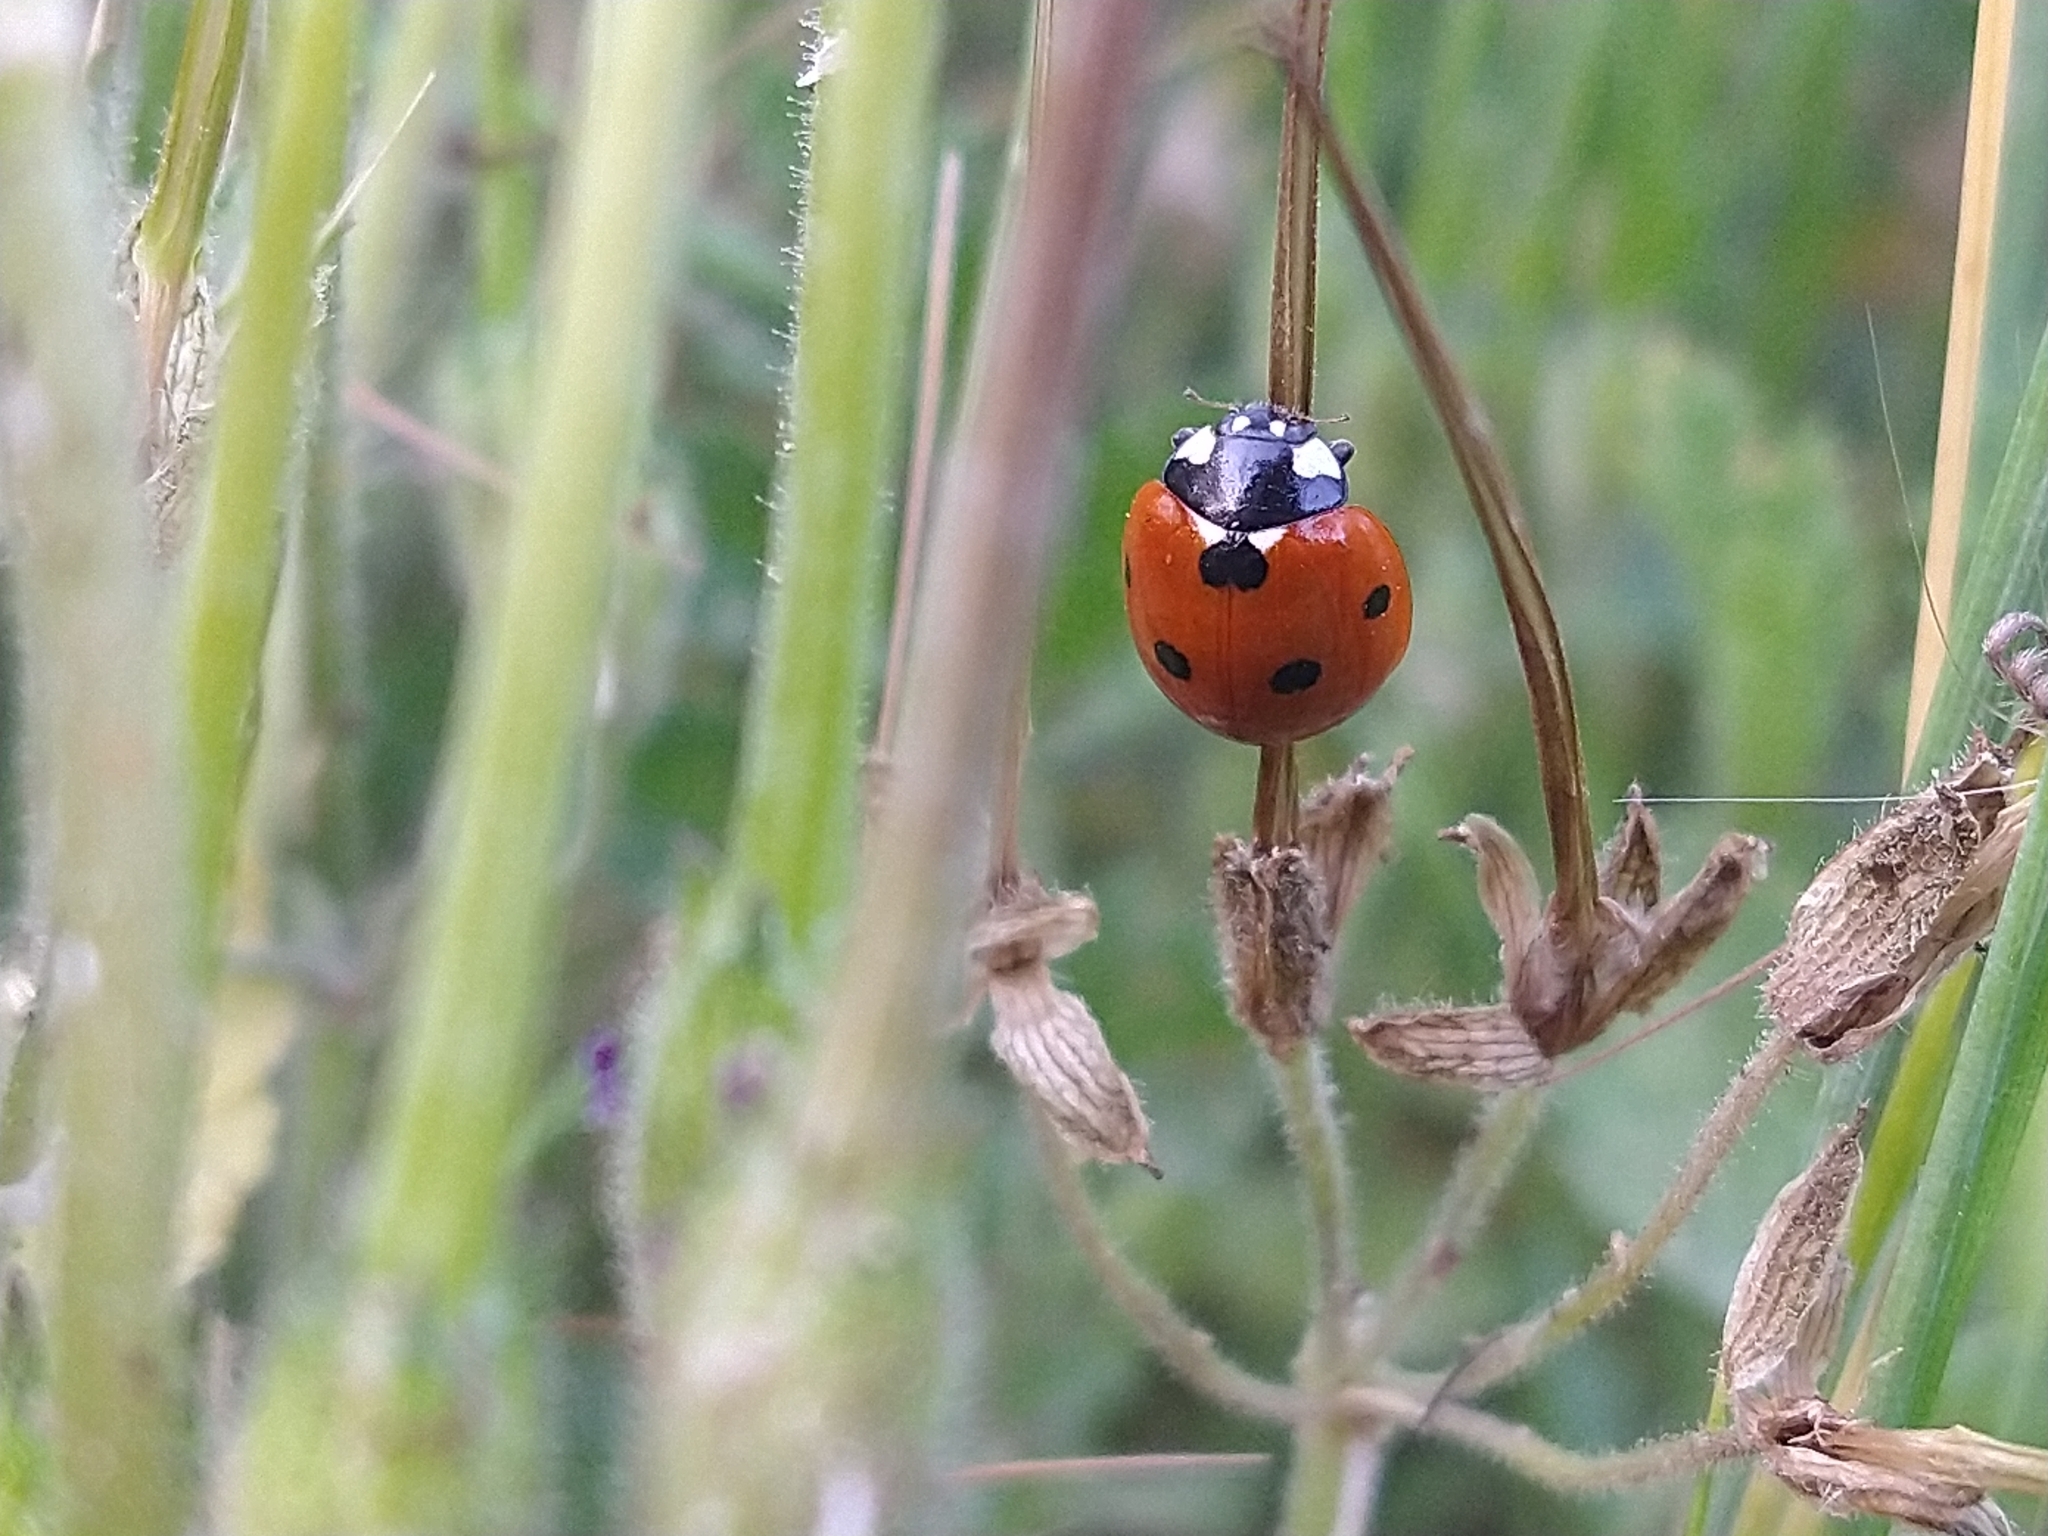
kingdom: Animalia
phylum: Arthropoda
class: Insecta
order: Coleoptera
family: Coccinellidae
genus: Coccinella
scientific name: Coccinella septempunctata
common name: Sevenspotted lady beetle
